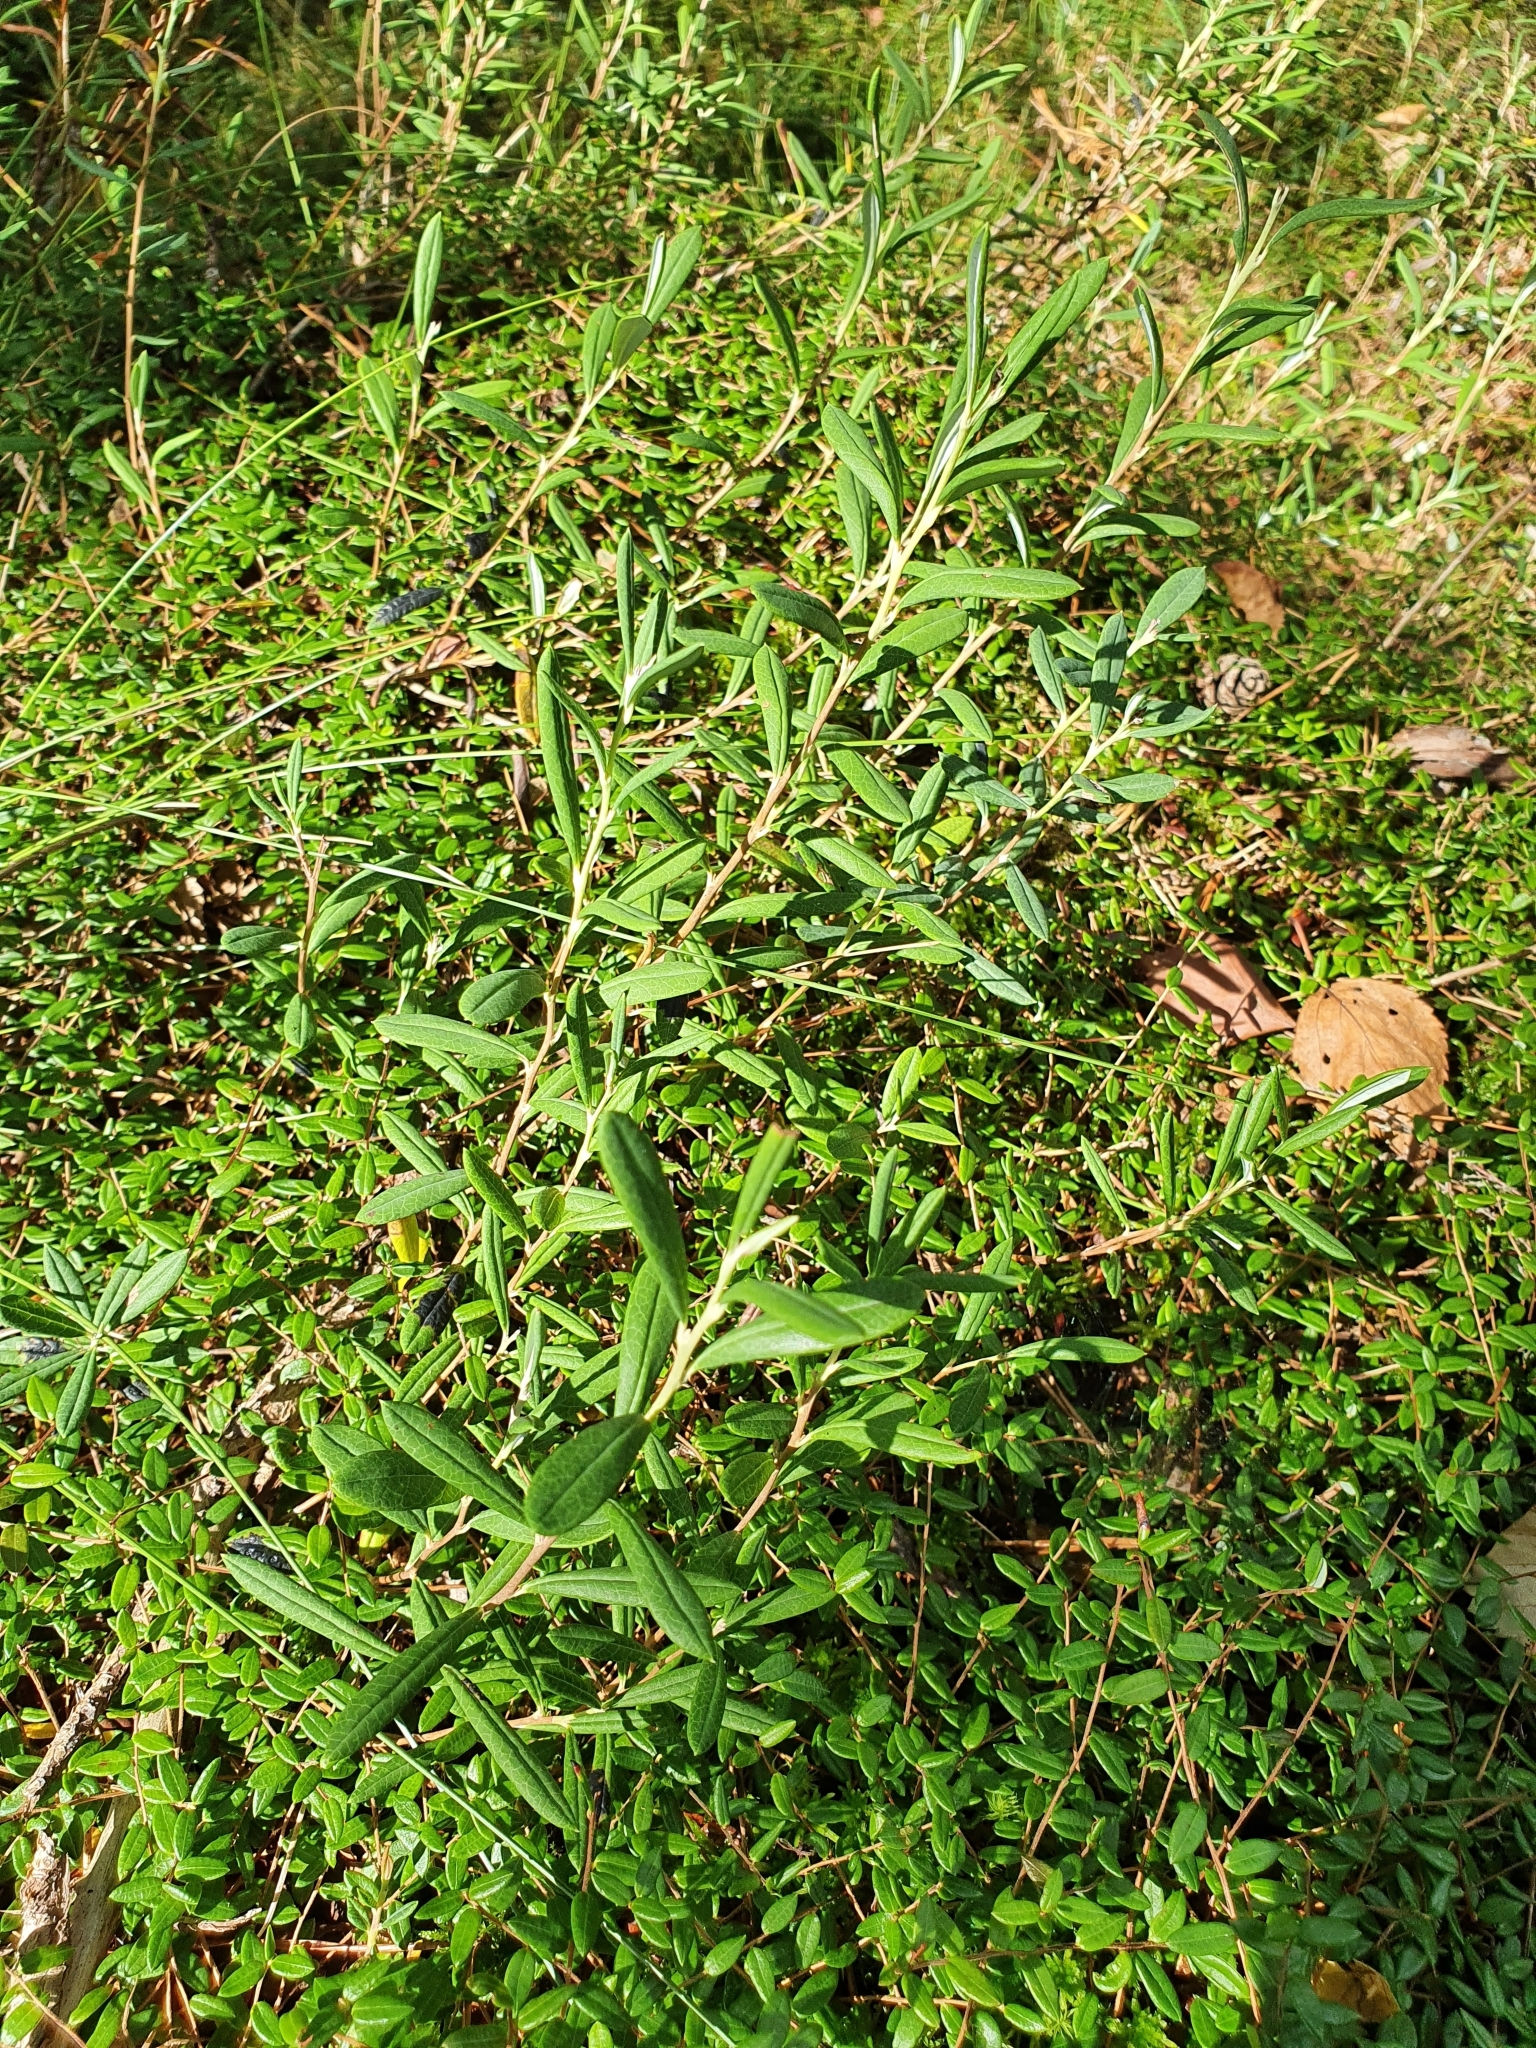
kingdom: Plantae
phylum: Tracheophyta
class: Magnoliopsida
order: Ericales
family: Ericaceae
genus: Andromeda
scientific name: Andromeda polifolia
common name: Bog-rosemary
